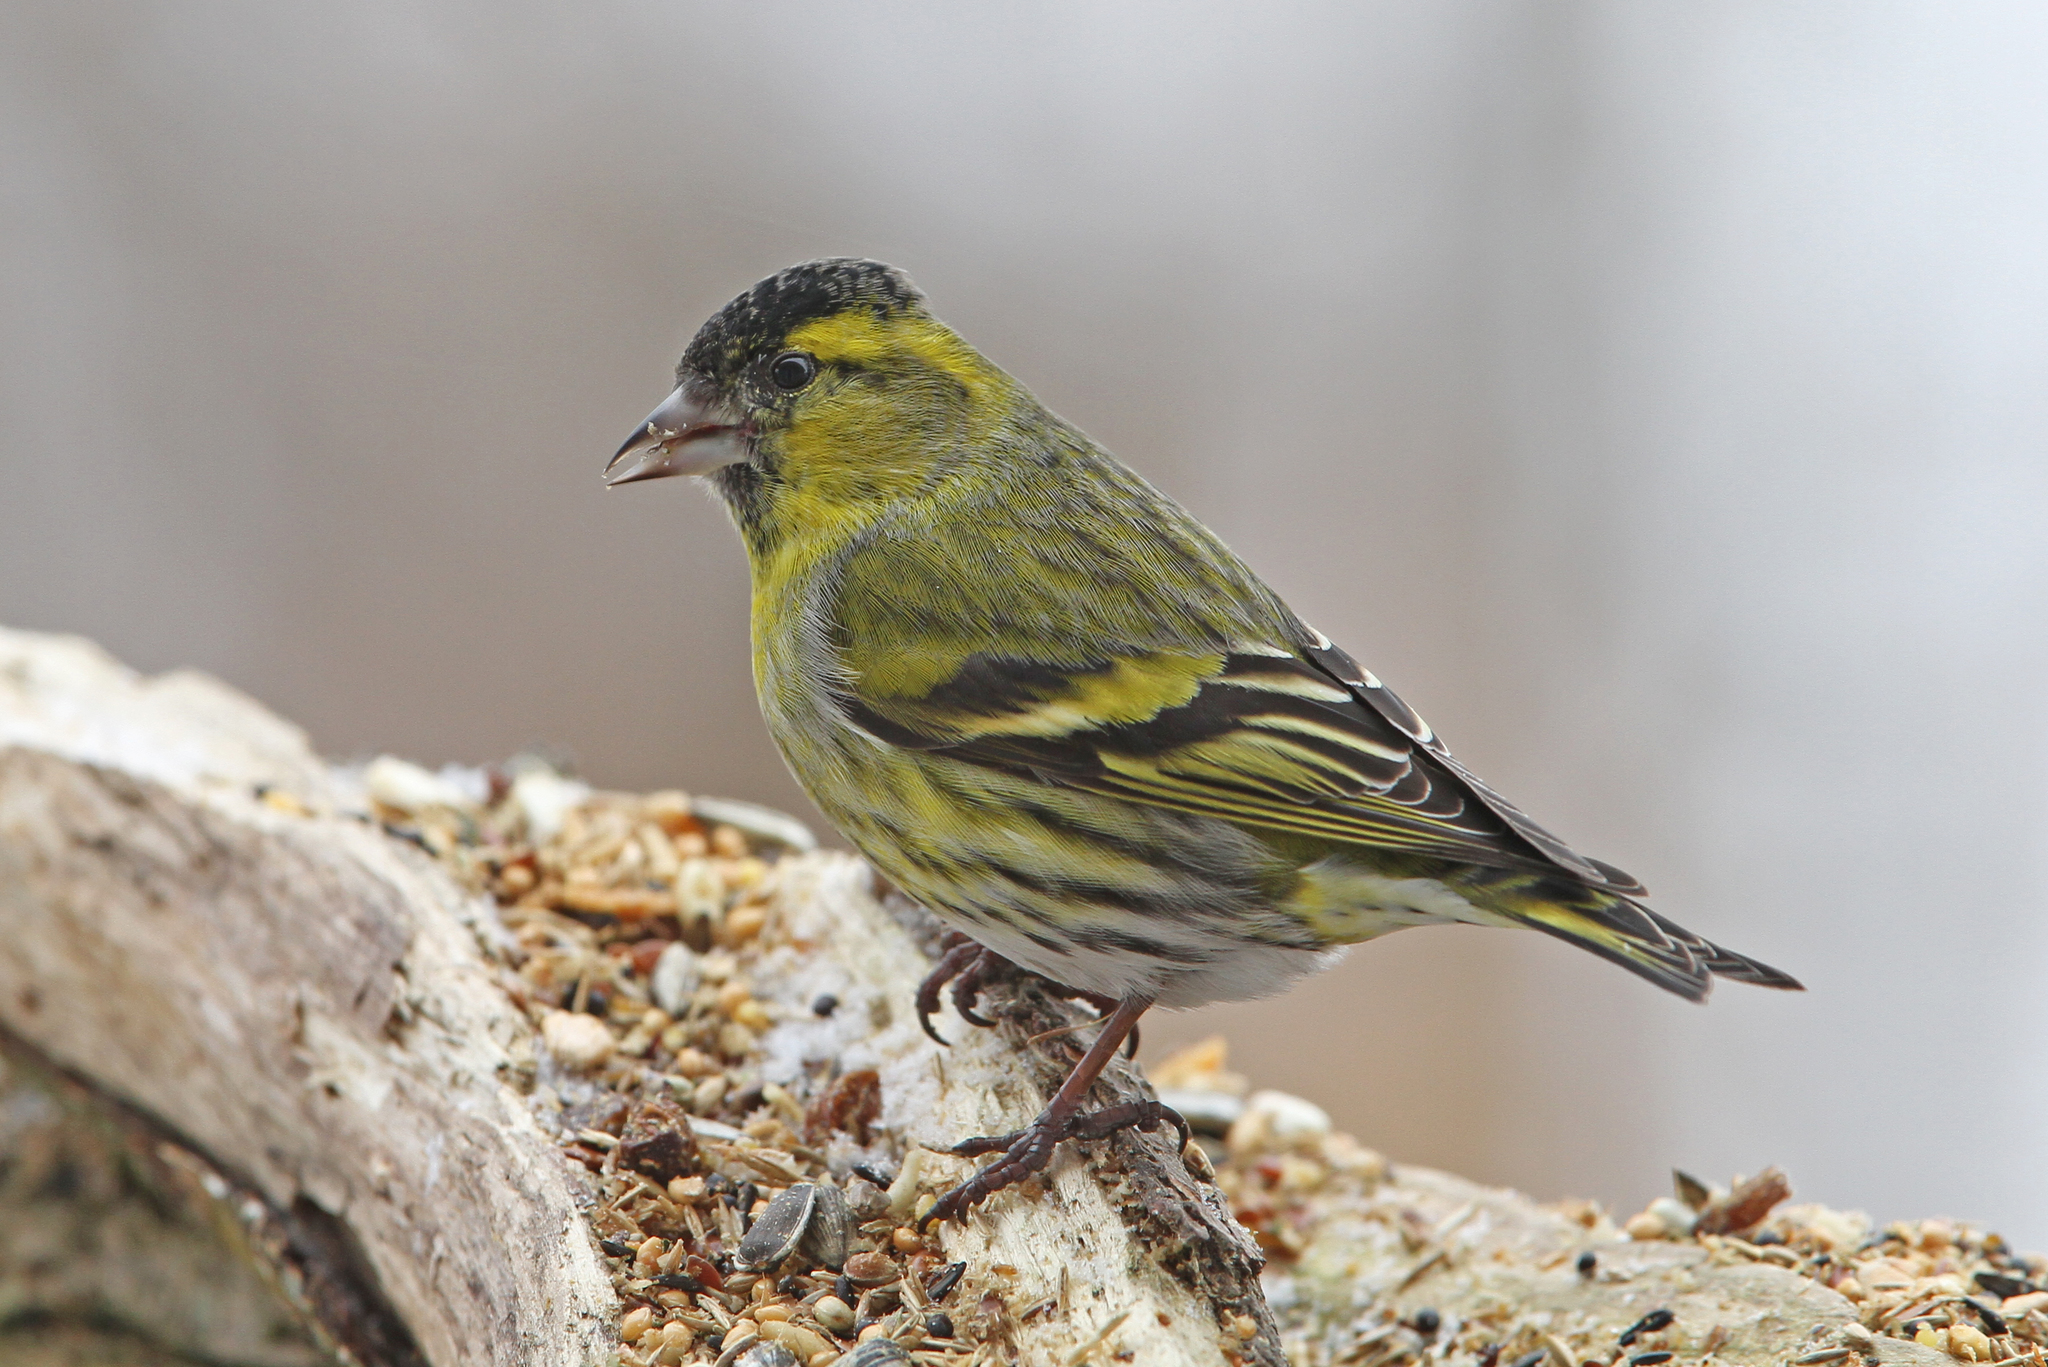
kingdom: Animalia
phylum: Chordata
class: Aves
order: Passeriformes
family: Fringillidae
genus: Spinus
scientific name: Spinus spinus
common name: Eurasian siskin
